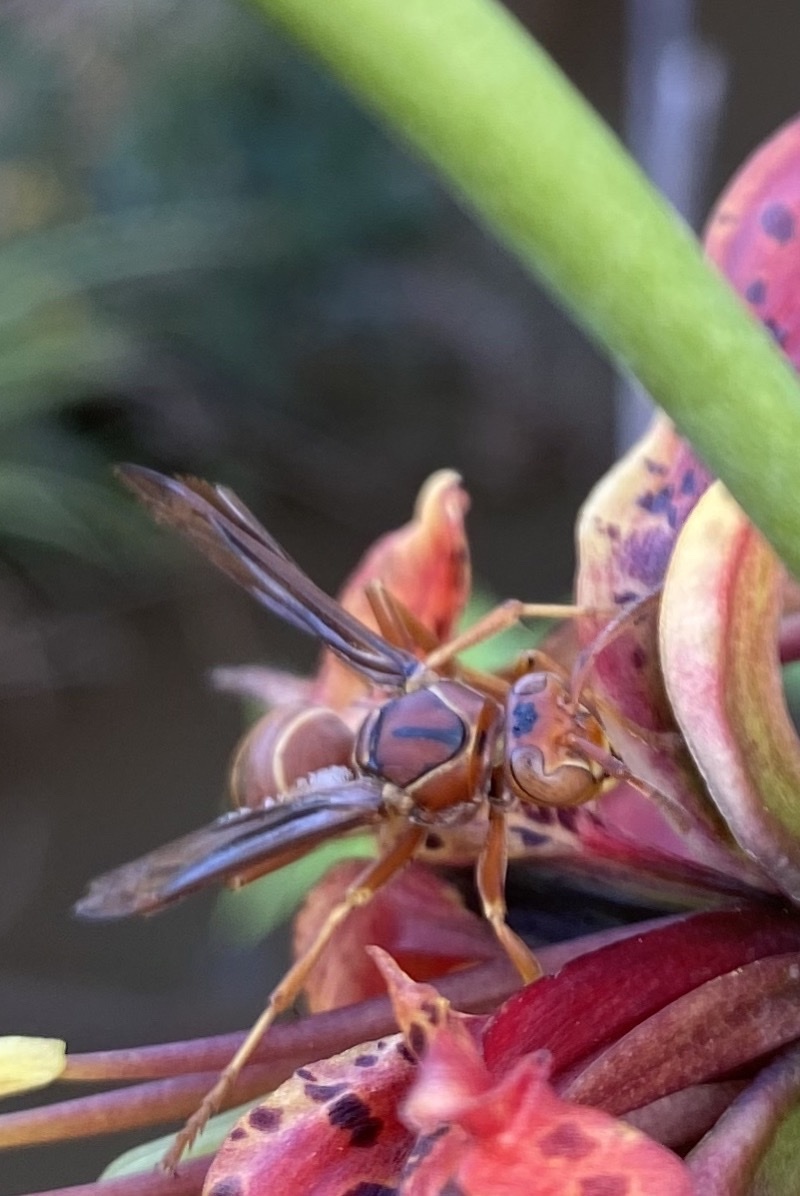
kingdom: Animalia
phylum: Arthropoda
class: Insecta
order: Hymenoptera
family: Vespidae
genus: Fuscopolistes
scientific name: Fuscopolistes
